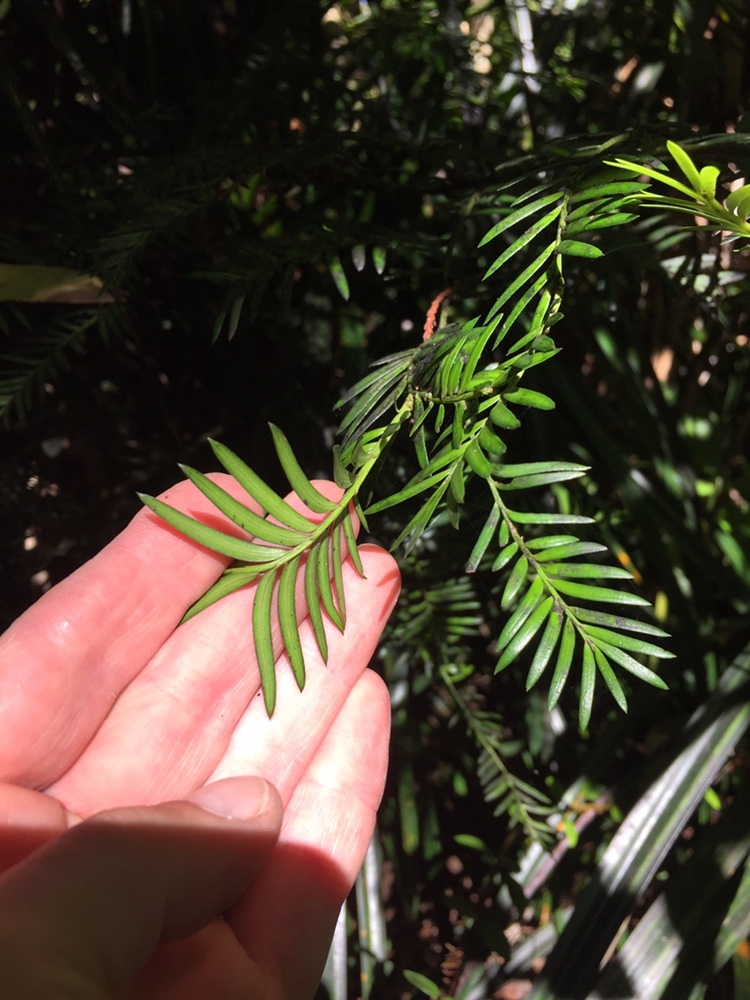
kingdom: Plantae
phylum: Tracheophyta
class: Pinopsida
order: Pinales
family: Podocarpaceae
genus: Prumnopitys
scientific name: Prumnopitys ferruginea
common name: Brown pine
